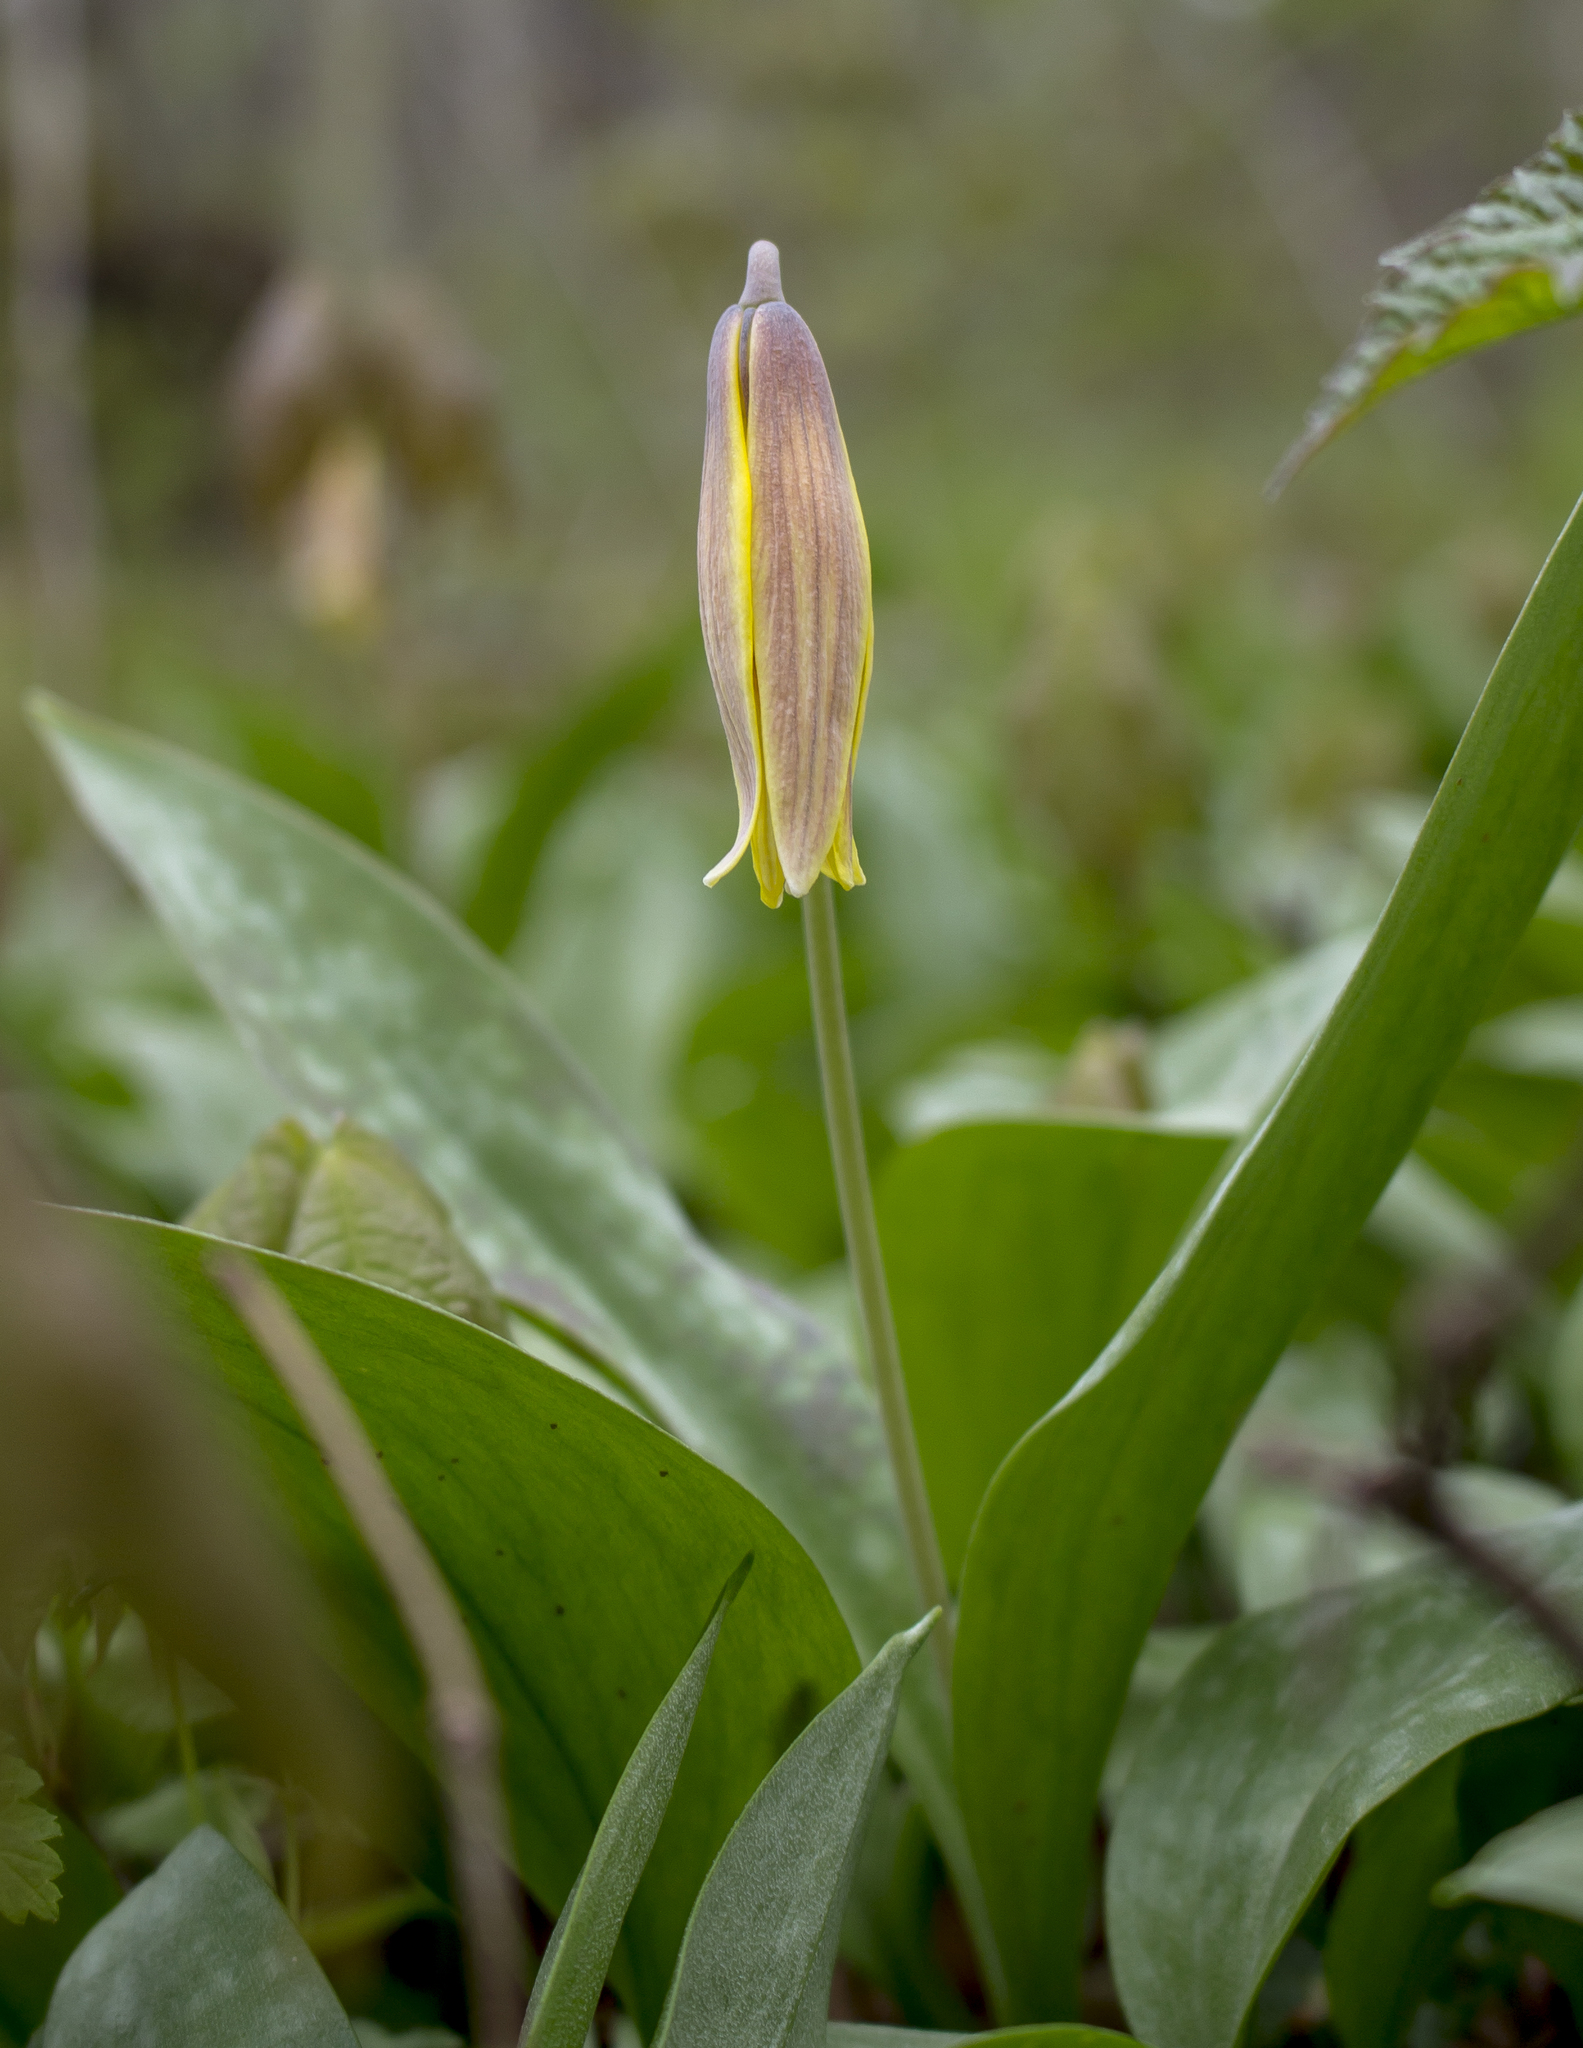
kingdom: Plantae
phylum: Tracheophyta
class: Liliopsida
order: Liliales
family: Liliaceae
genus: Erythronium
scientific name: Erythronium americanum
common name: Yellow adder's-tongue
